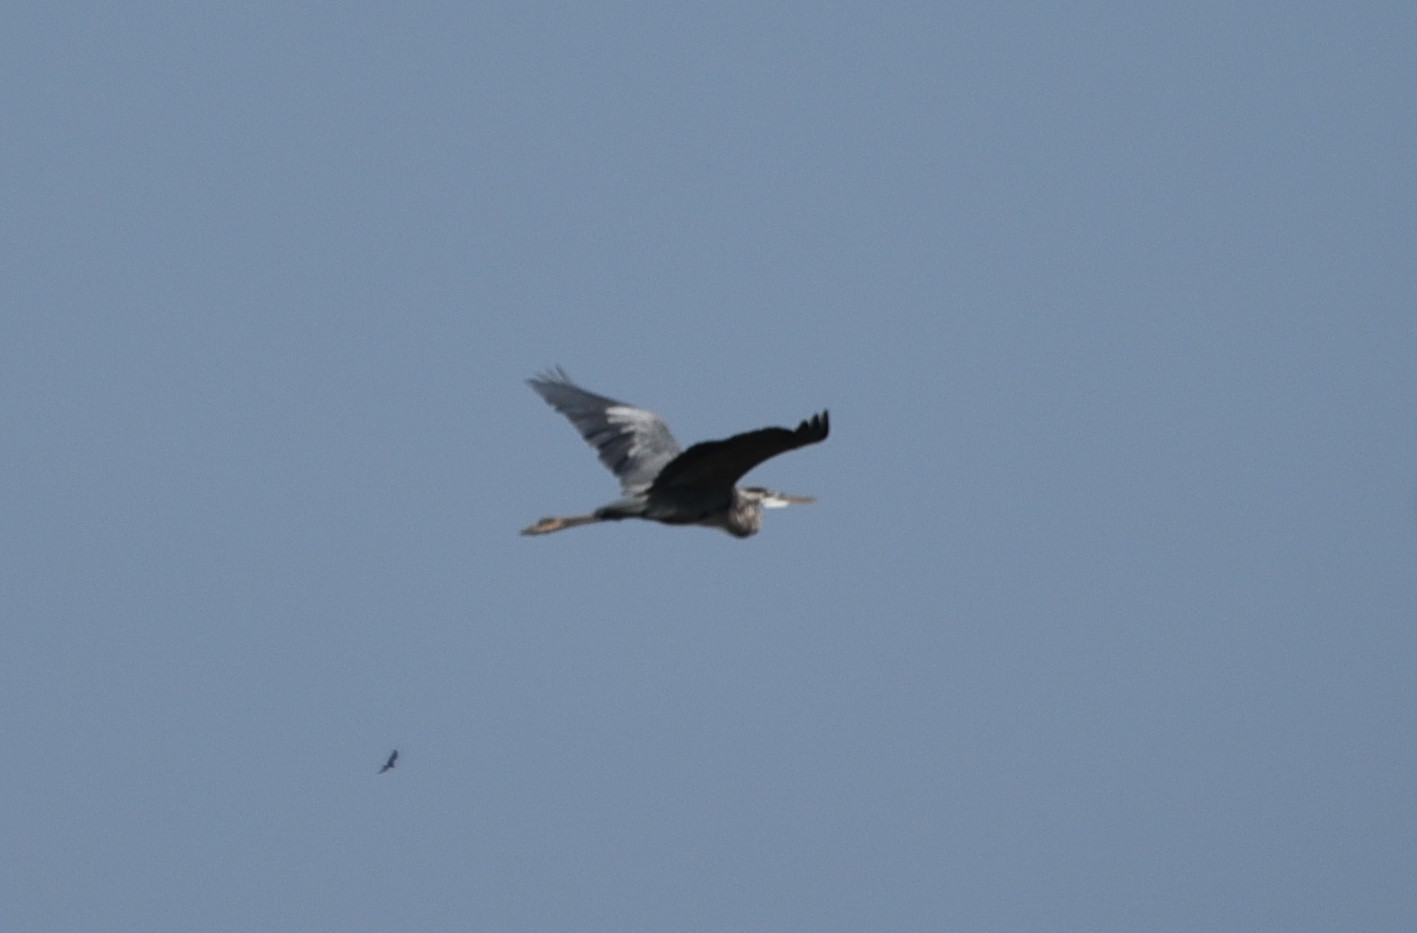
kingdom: Animalia
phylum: Chordata
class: Aves
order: Pelecaniformes
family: Ardeidae
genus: Ardea
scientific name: Ardea herodias
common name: Great blue heron
